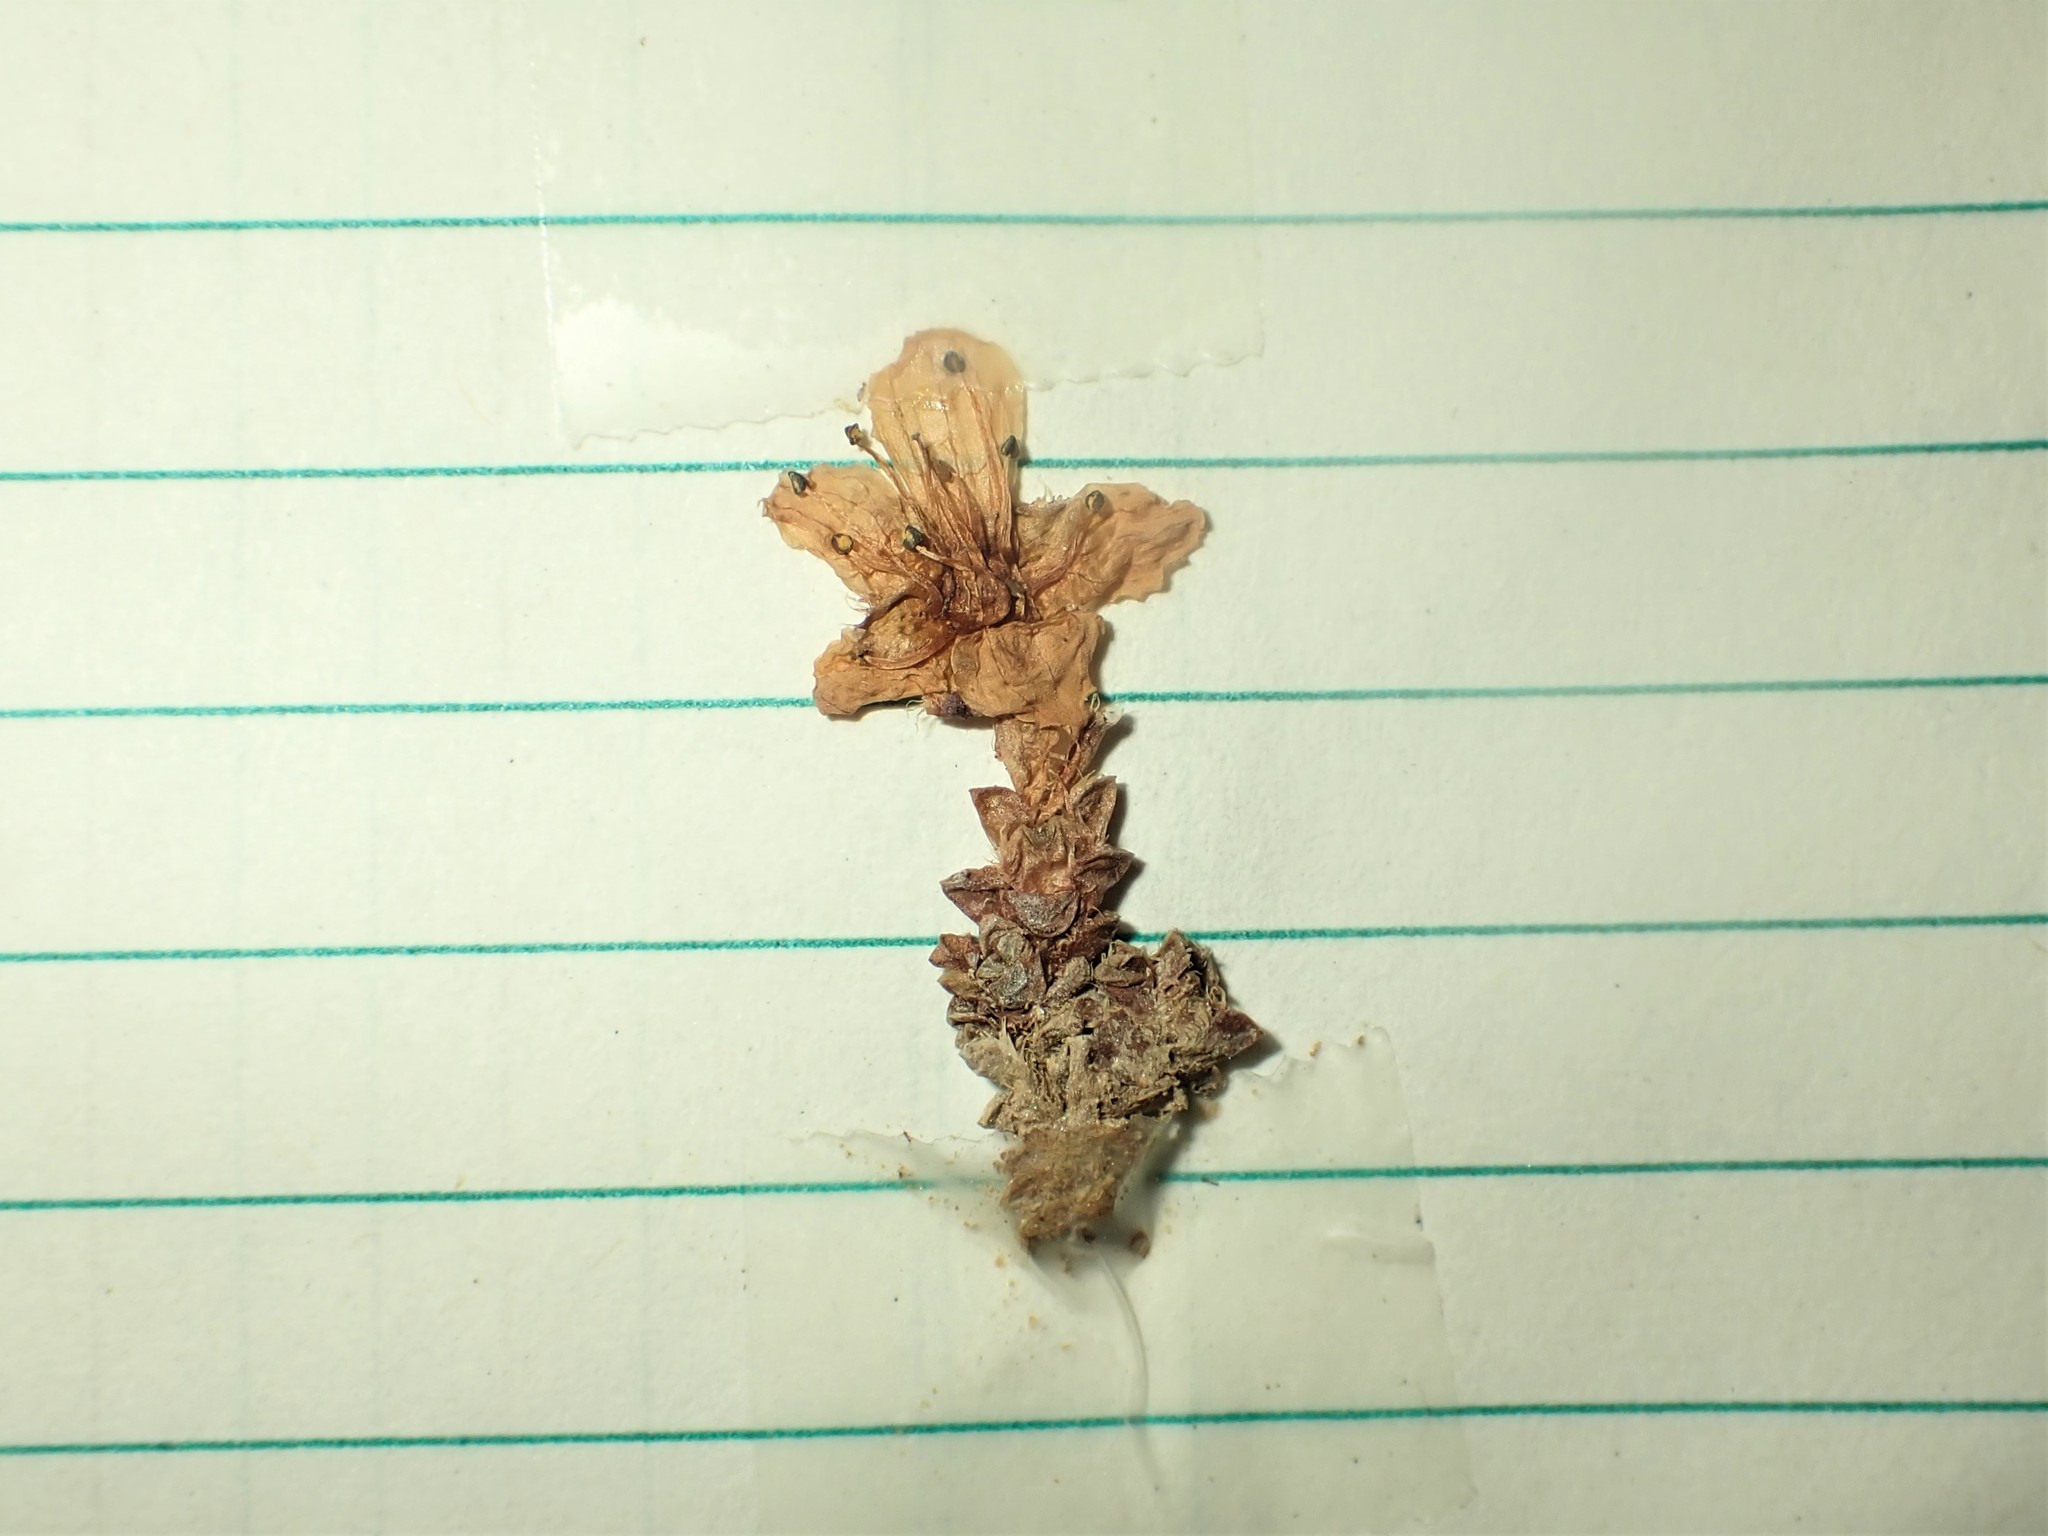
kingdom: Plantae
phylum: Tracheophyta
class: Magnoliopsida
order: Saxifragales
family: Saxifragaceae
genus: Saxifraga
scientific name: Saxifraga oppositifolia
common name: Purple saxifrage
